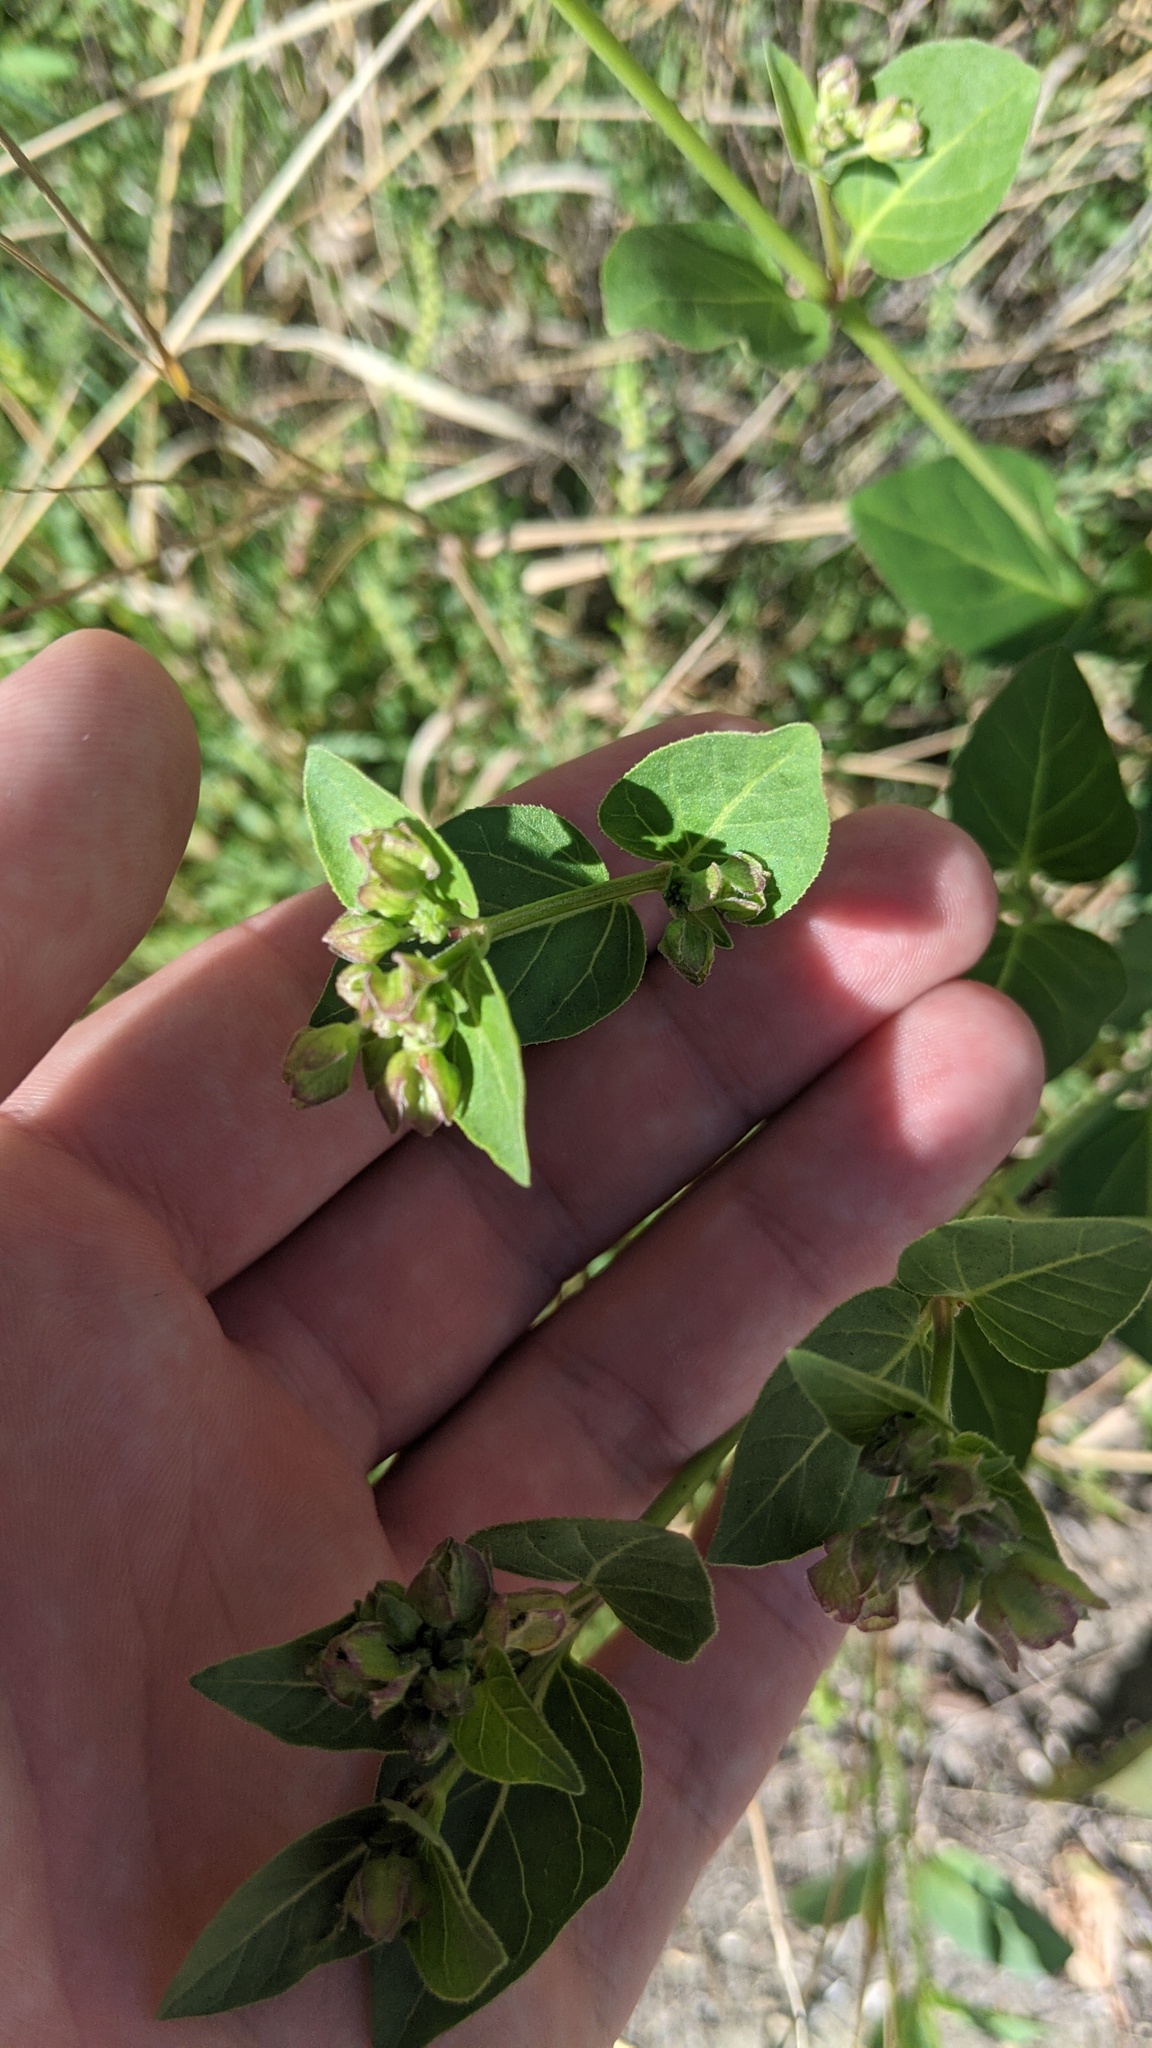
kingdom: Plantae
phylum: Tracheophyta
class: Magnoliopsida
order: Caryophyllales
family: Nyctaginaceae
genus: Mirabilis
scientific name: Mirabilis nyctaginea
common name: Umbrella wort
